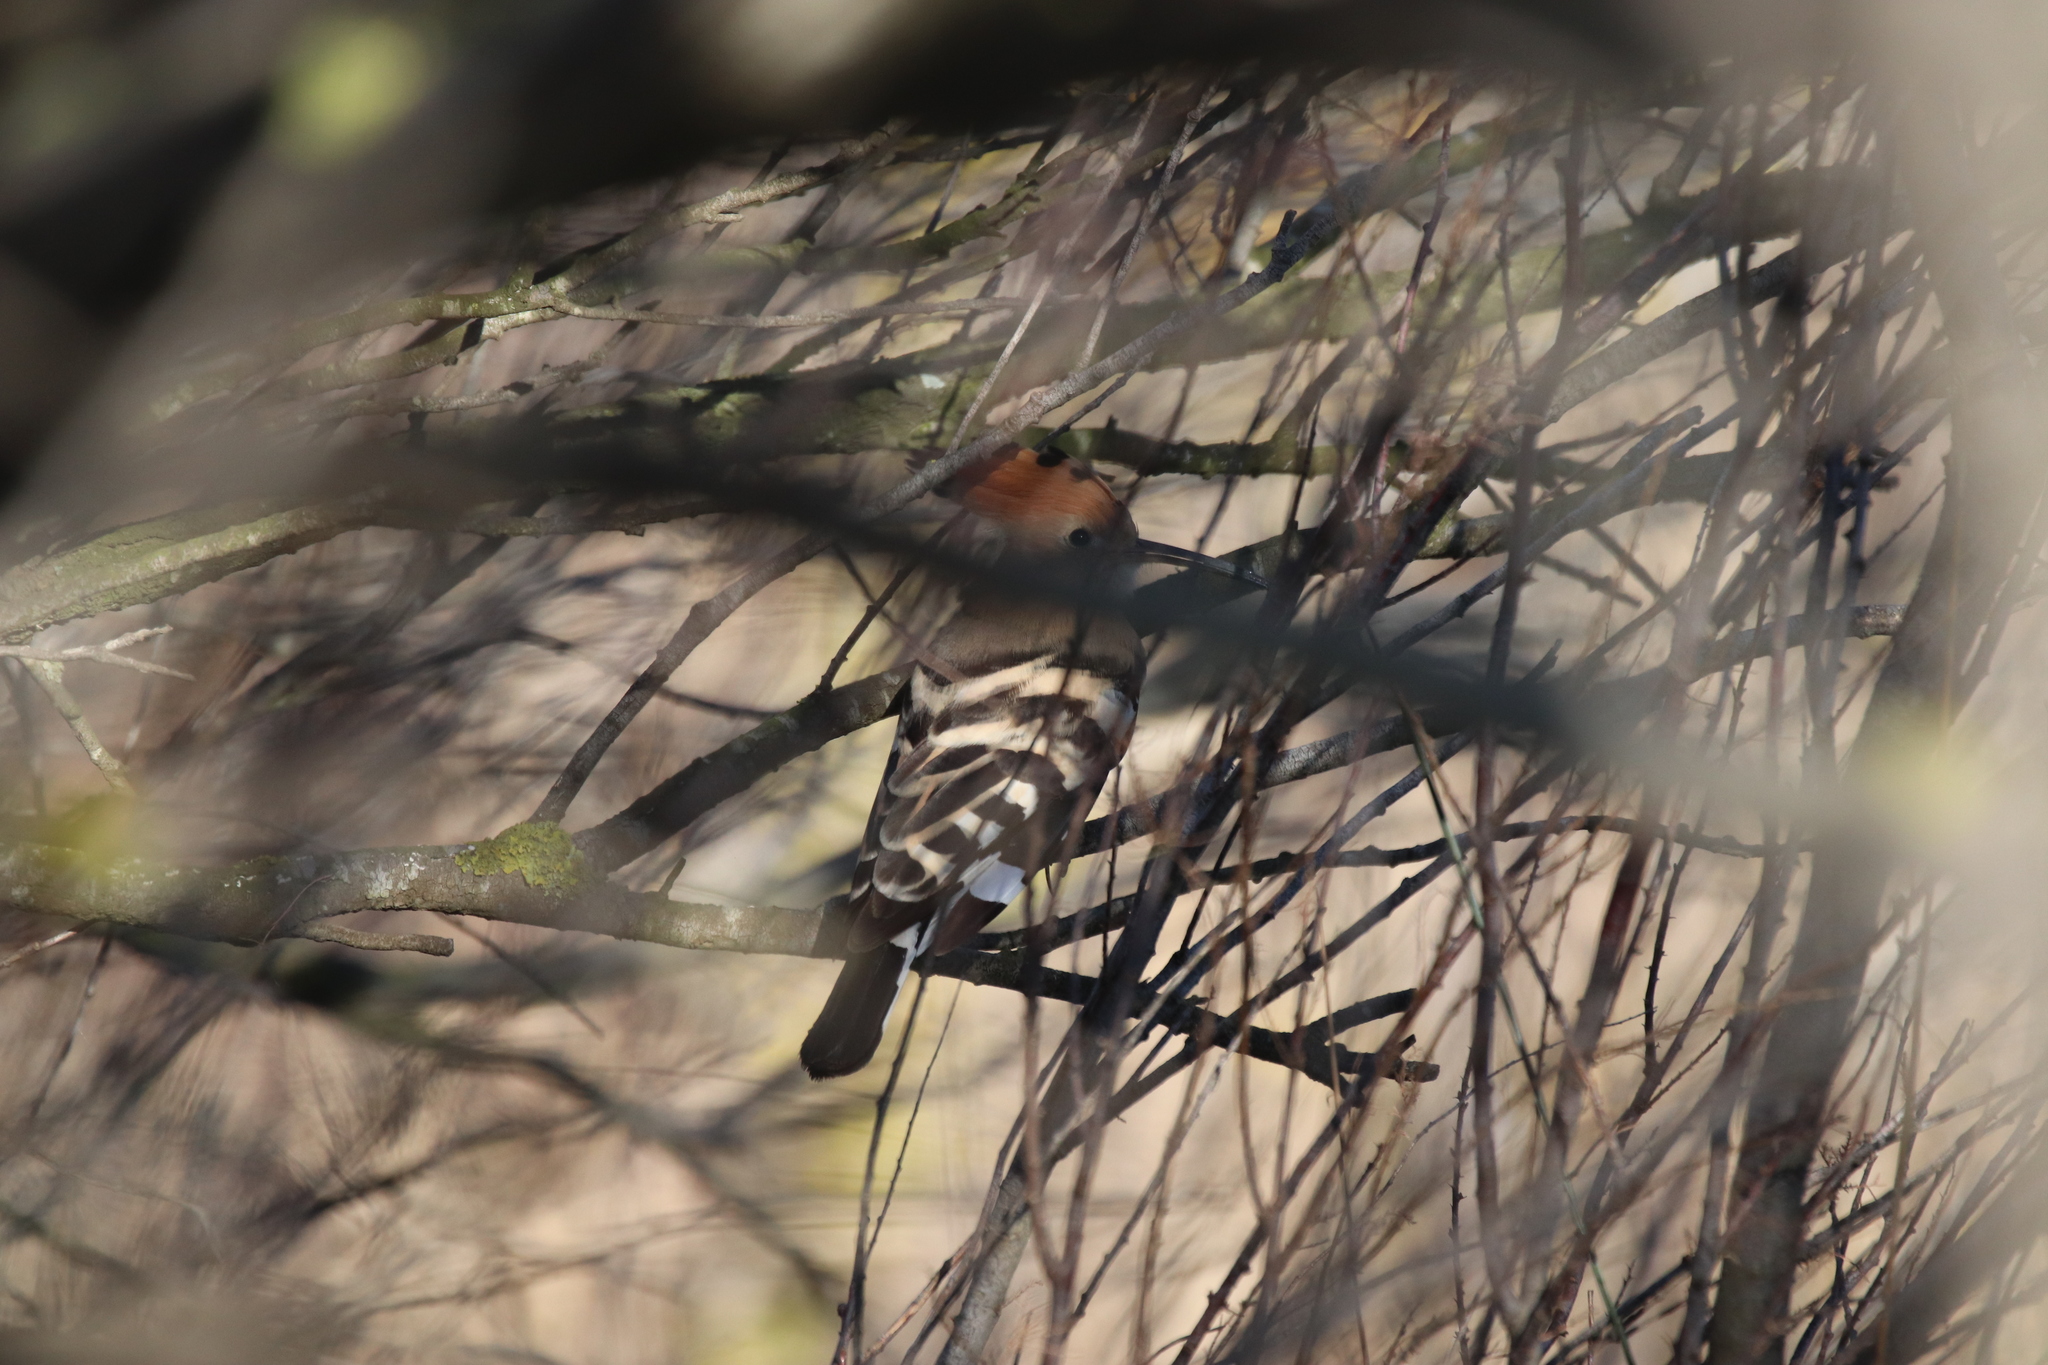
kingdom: Animalia
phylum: Chordata
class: Aves
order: Bucerotiformes
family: Upupidae
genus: Upupa
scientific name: Upupa epops
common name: Eurasian hoopoe
